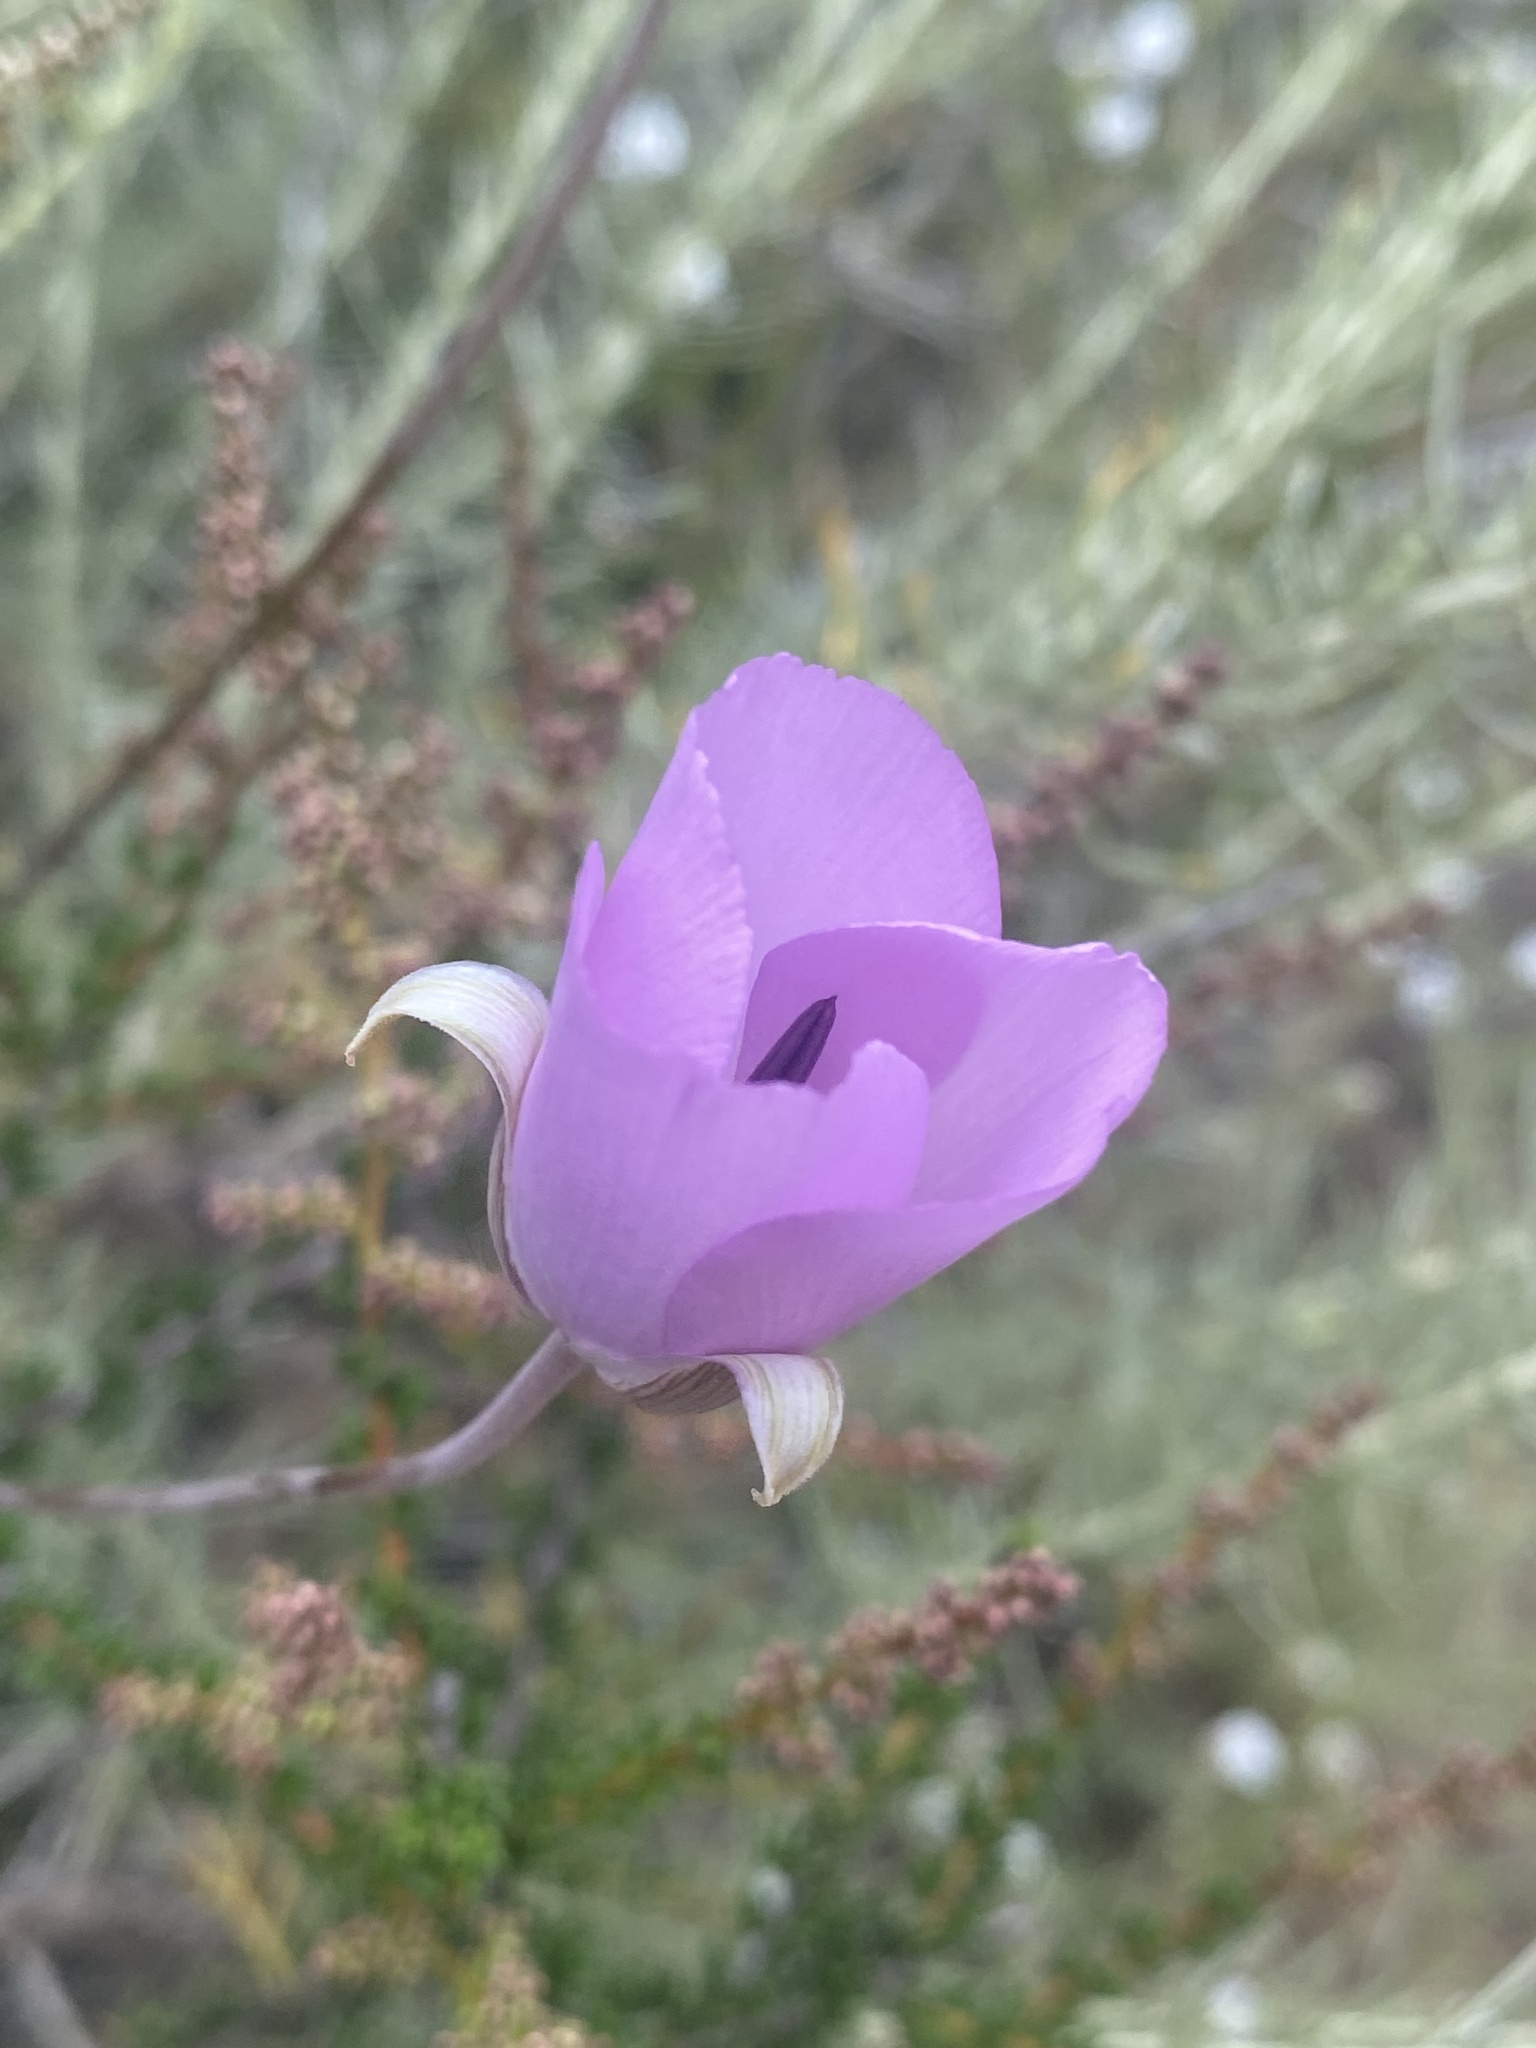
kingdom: Plantae
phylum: Tracheophyta
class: Liliopsida
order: Liliales
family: Liliaceae
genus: Calochortus
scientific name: Calochortus splendens
